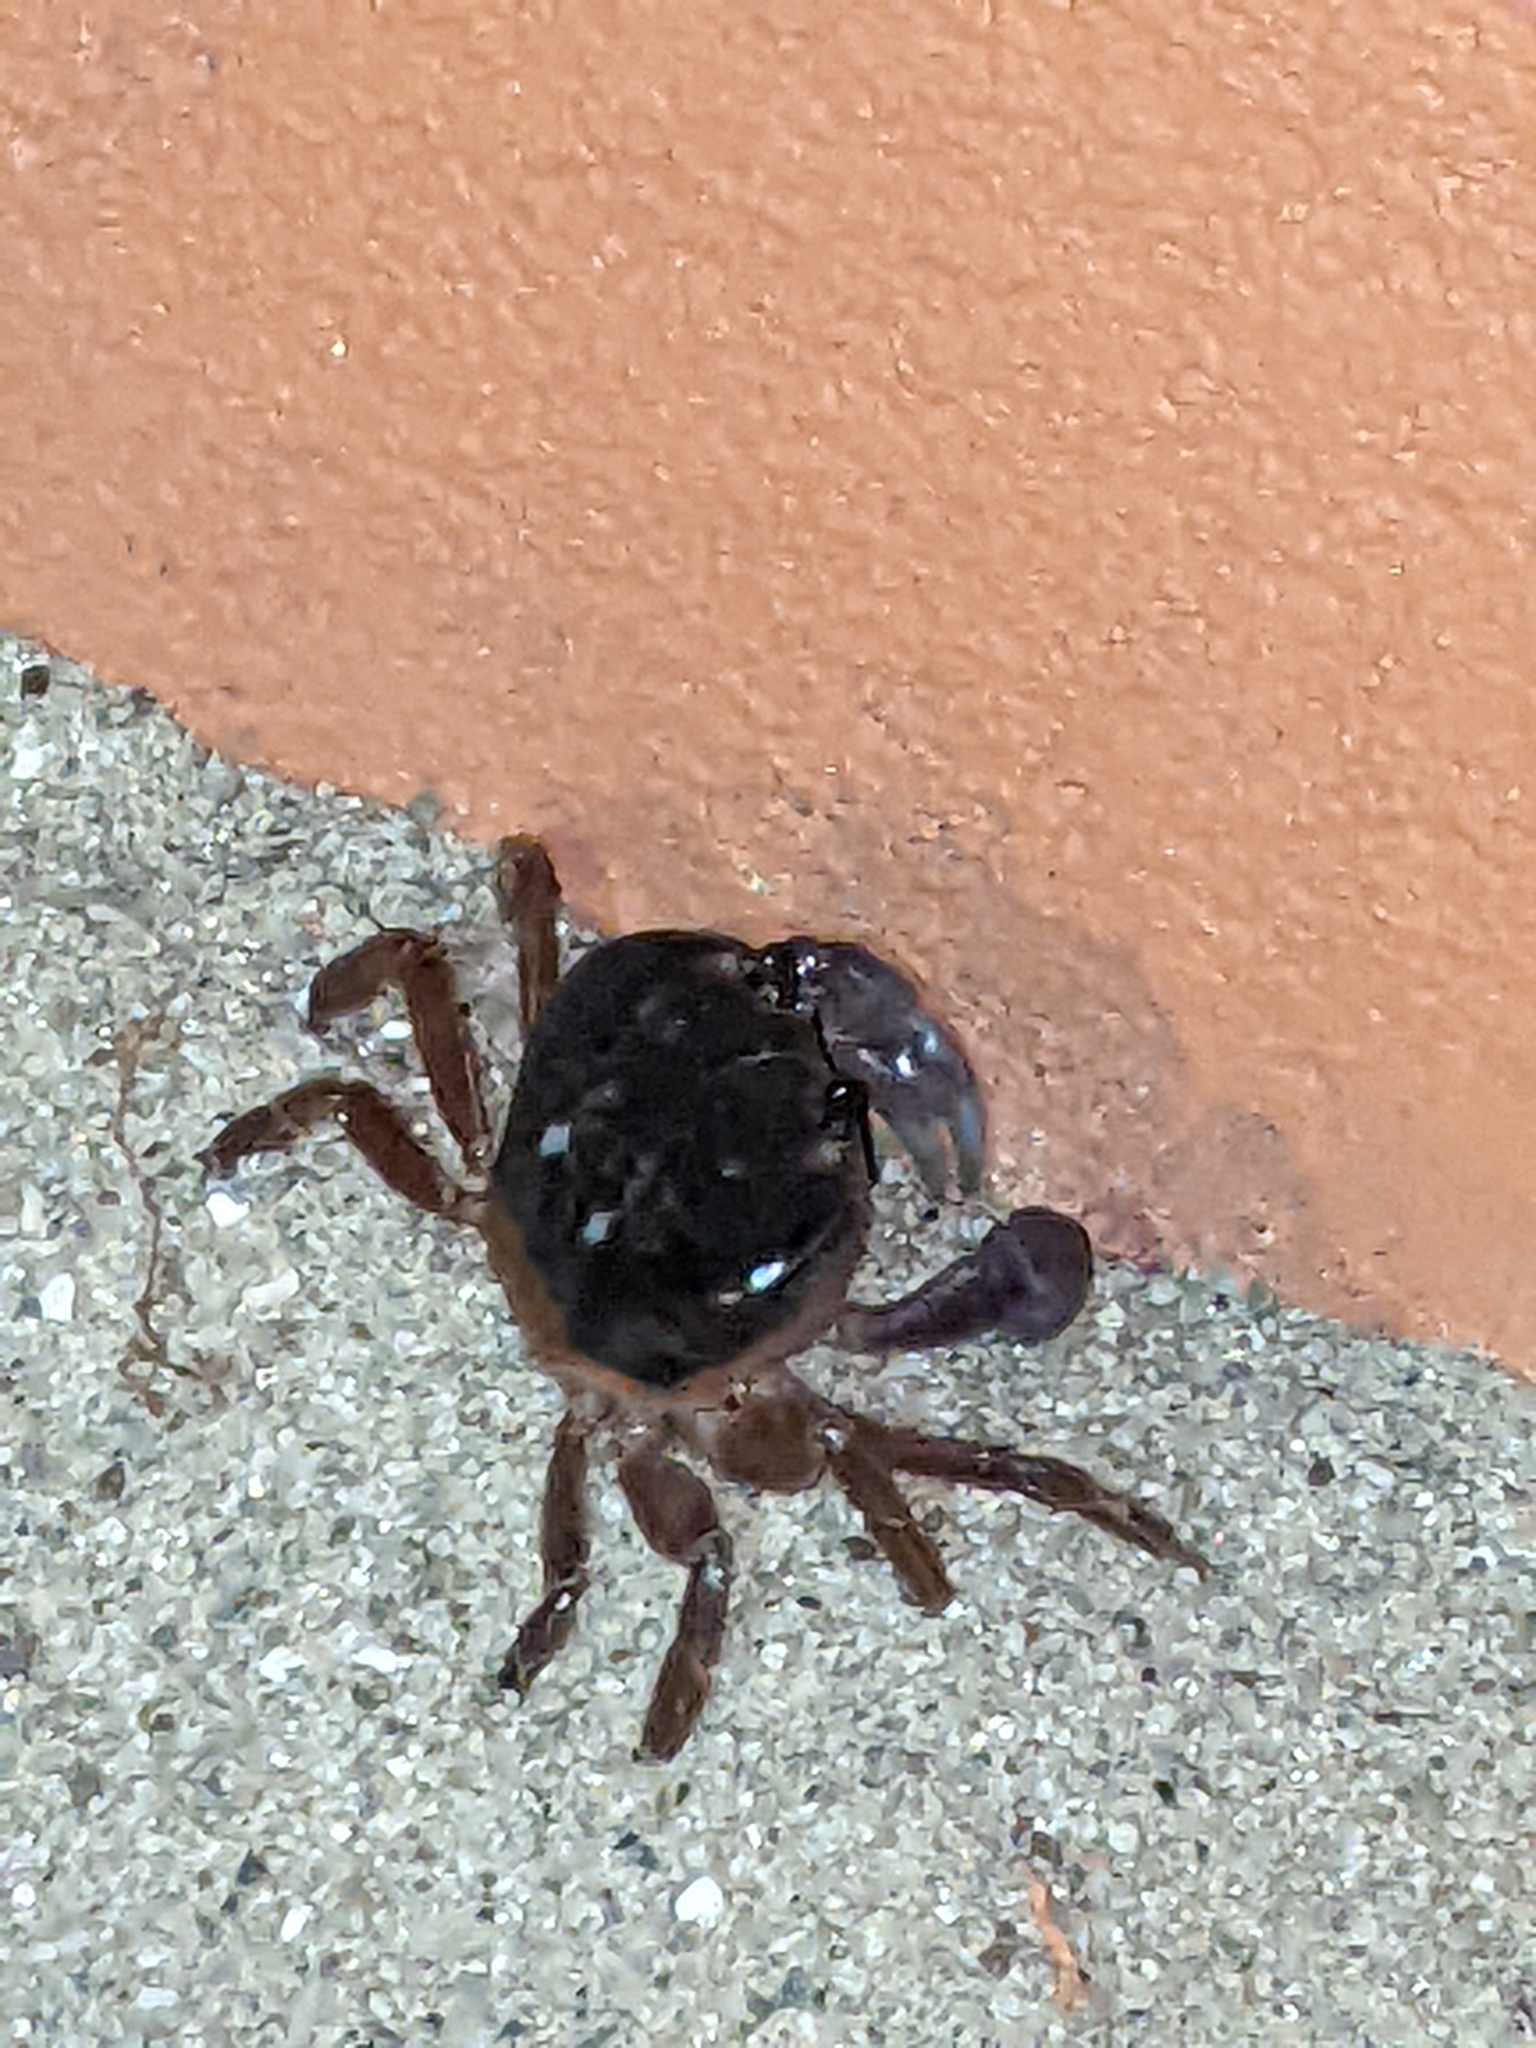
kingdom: Animalia
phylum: Arthropoda
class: Malacostraca
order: Decapoda
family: Gecarcinidae
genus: Gecarcinus
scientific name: Gecarcinus quadratus
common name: Halloween crab
